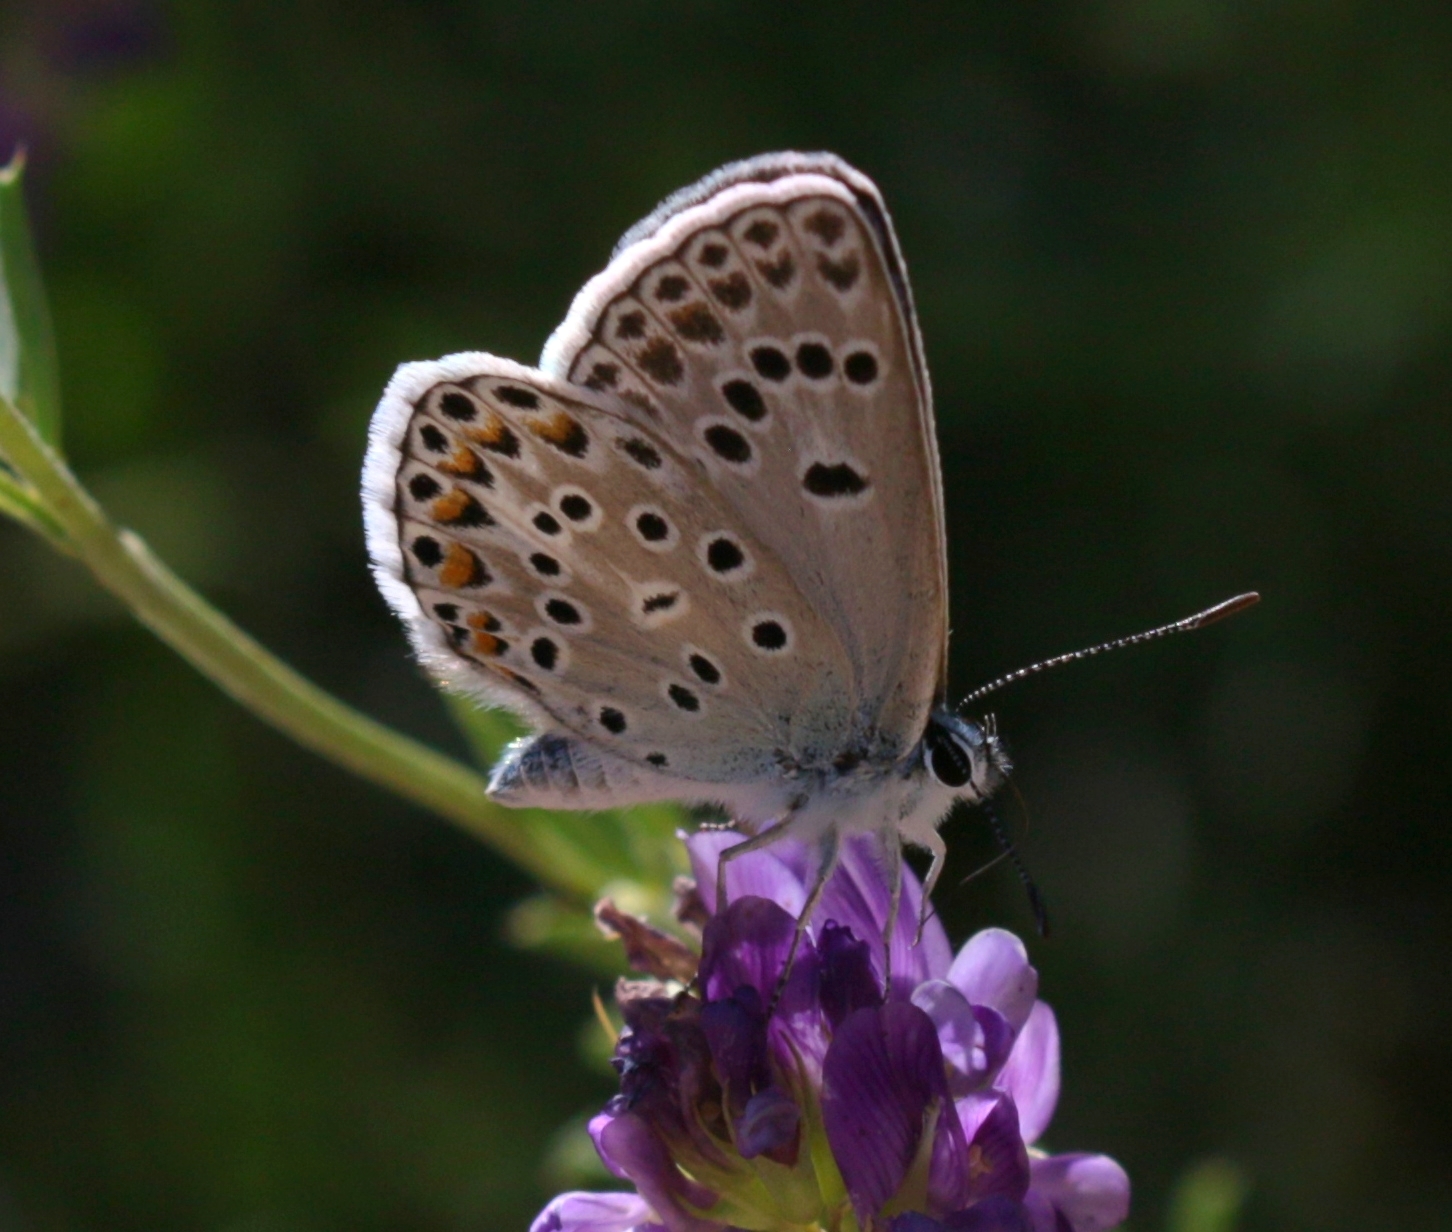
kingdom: Animalia
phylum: Arthropoda
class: Insecta
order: Lepidoptera
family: Lycaenidae
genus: Plebicula
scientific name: Plebicula escheri
